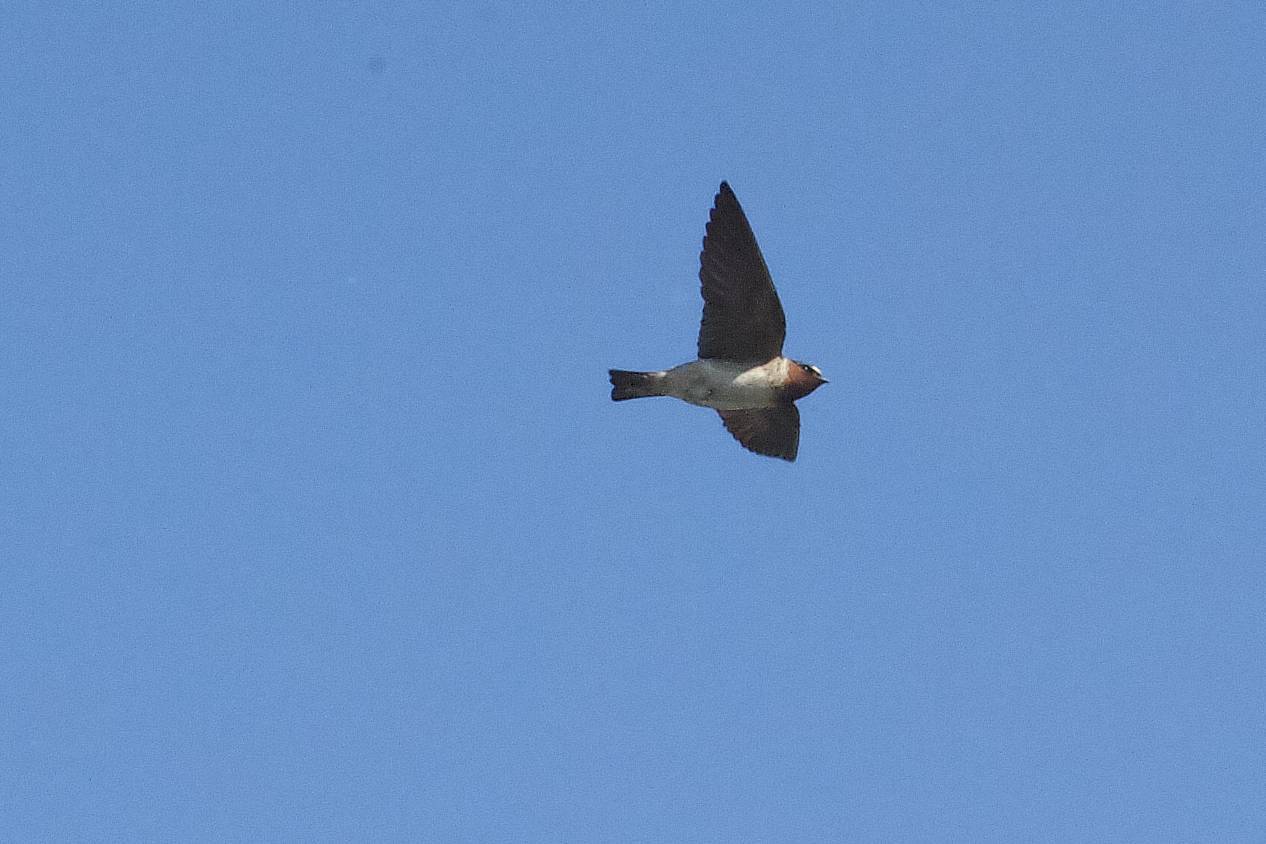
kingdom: Animalia
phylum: Chordata
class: Aves
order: Passeriformes
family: Hirundinidae
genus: Petrochelidon
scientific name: Petrochelidon pyrrhonota
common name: American cliff swallow
